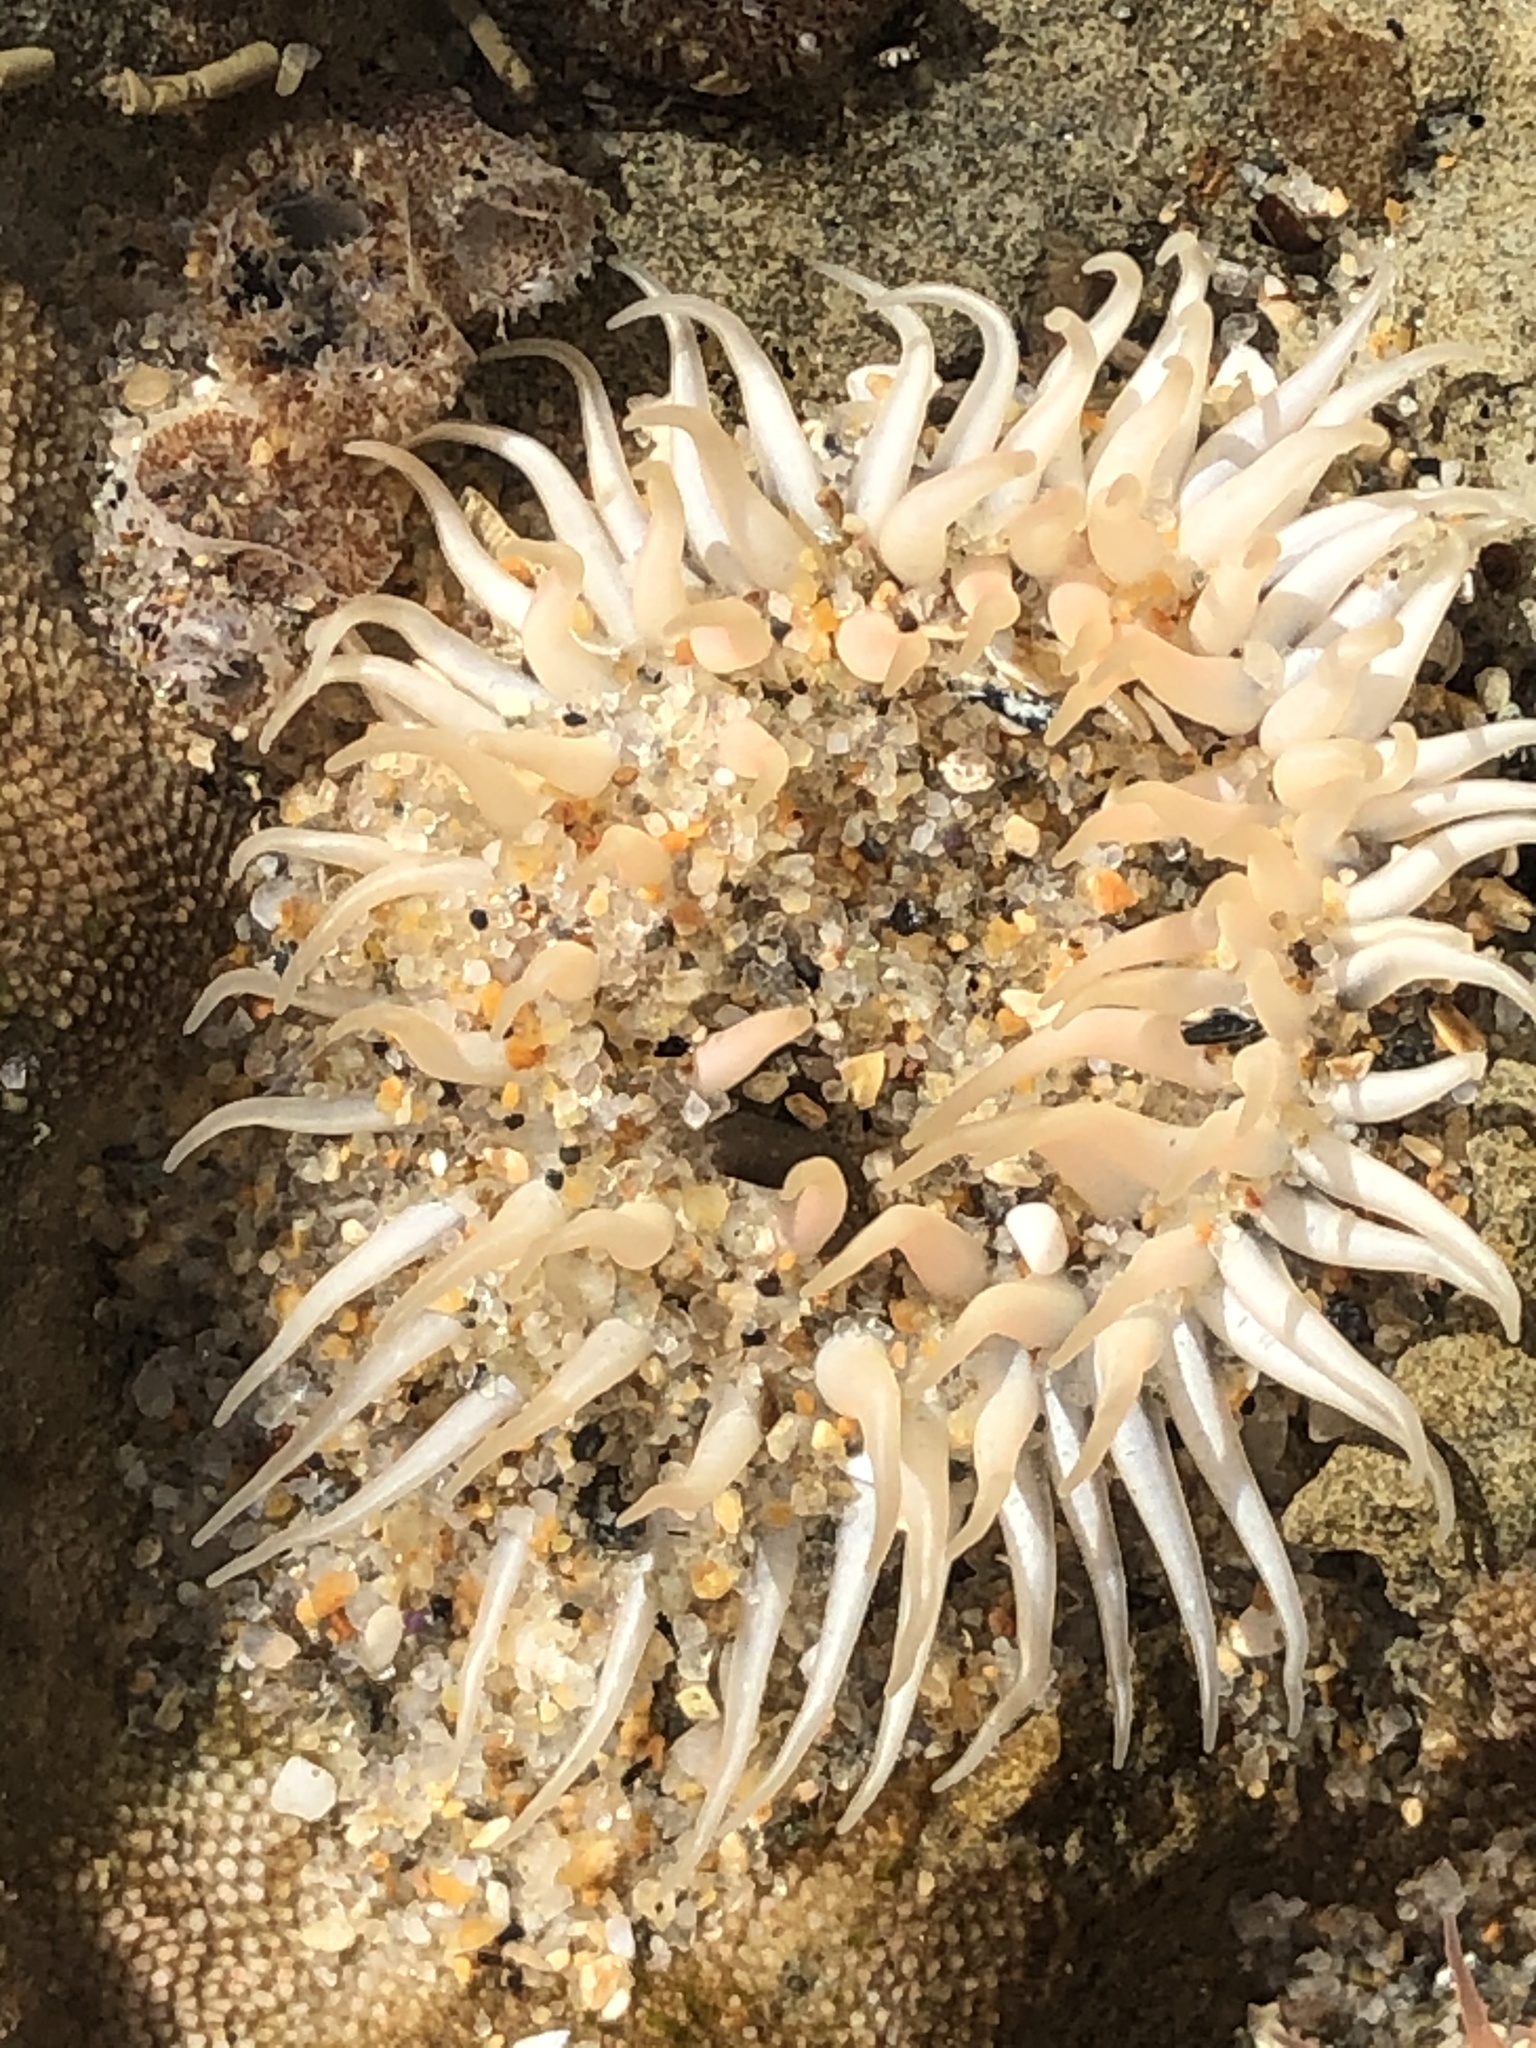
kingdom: Animalia
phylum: Cnidaria
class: Anthozoa
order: Actiniaria
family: Actiniidae
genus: Anthopleura
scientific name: Anthopleura artemisia
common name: Buried sea anemone
